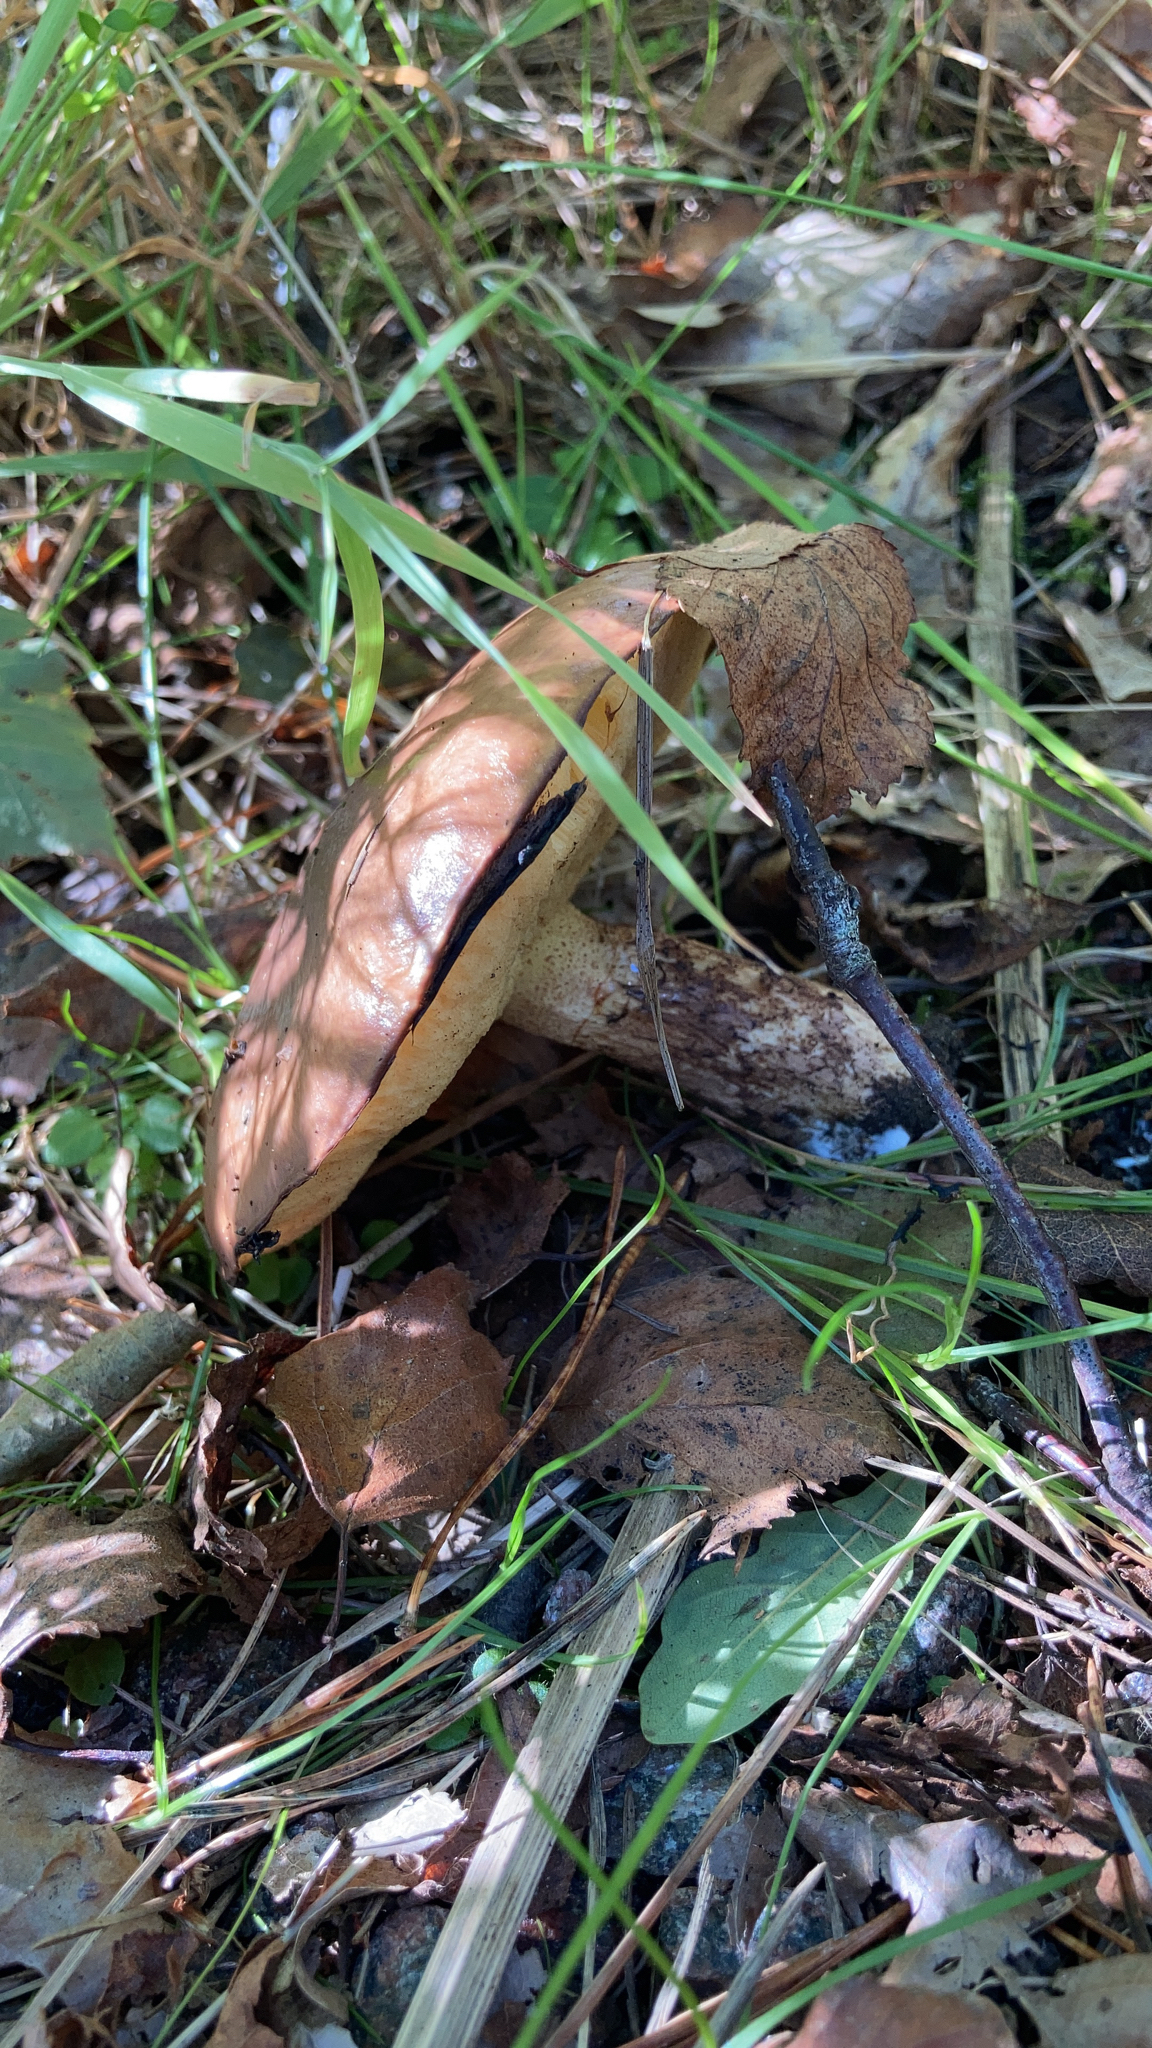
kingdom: Fungi
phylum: Basidiomycota
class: Agaricomycetes
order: Boletales
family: Suillaceae
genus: Suillus
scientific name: Suillus luteus
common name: Slippery jack
